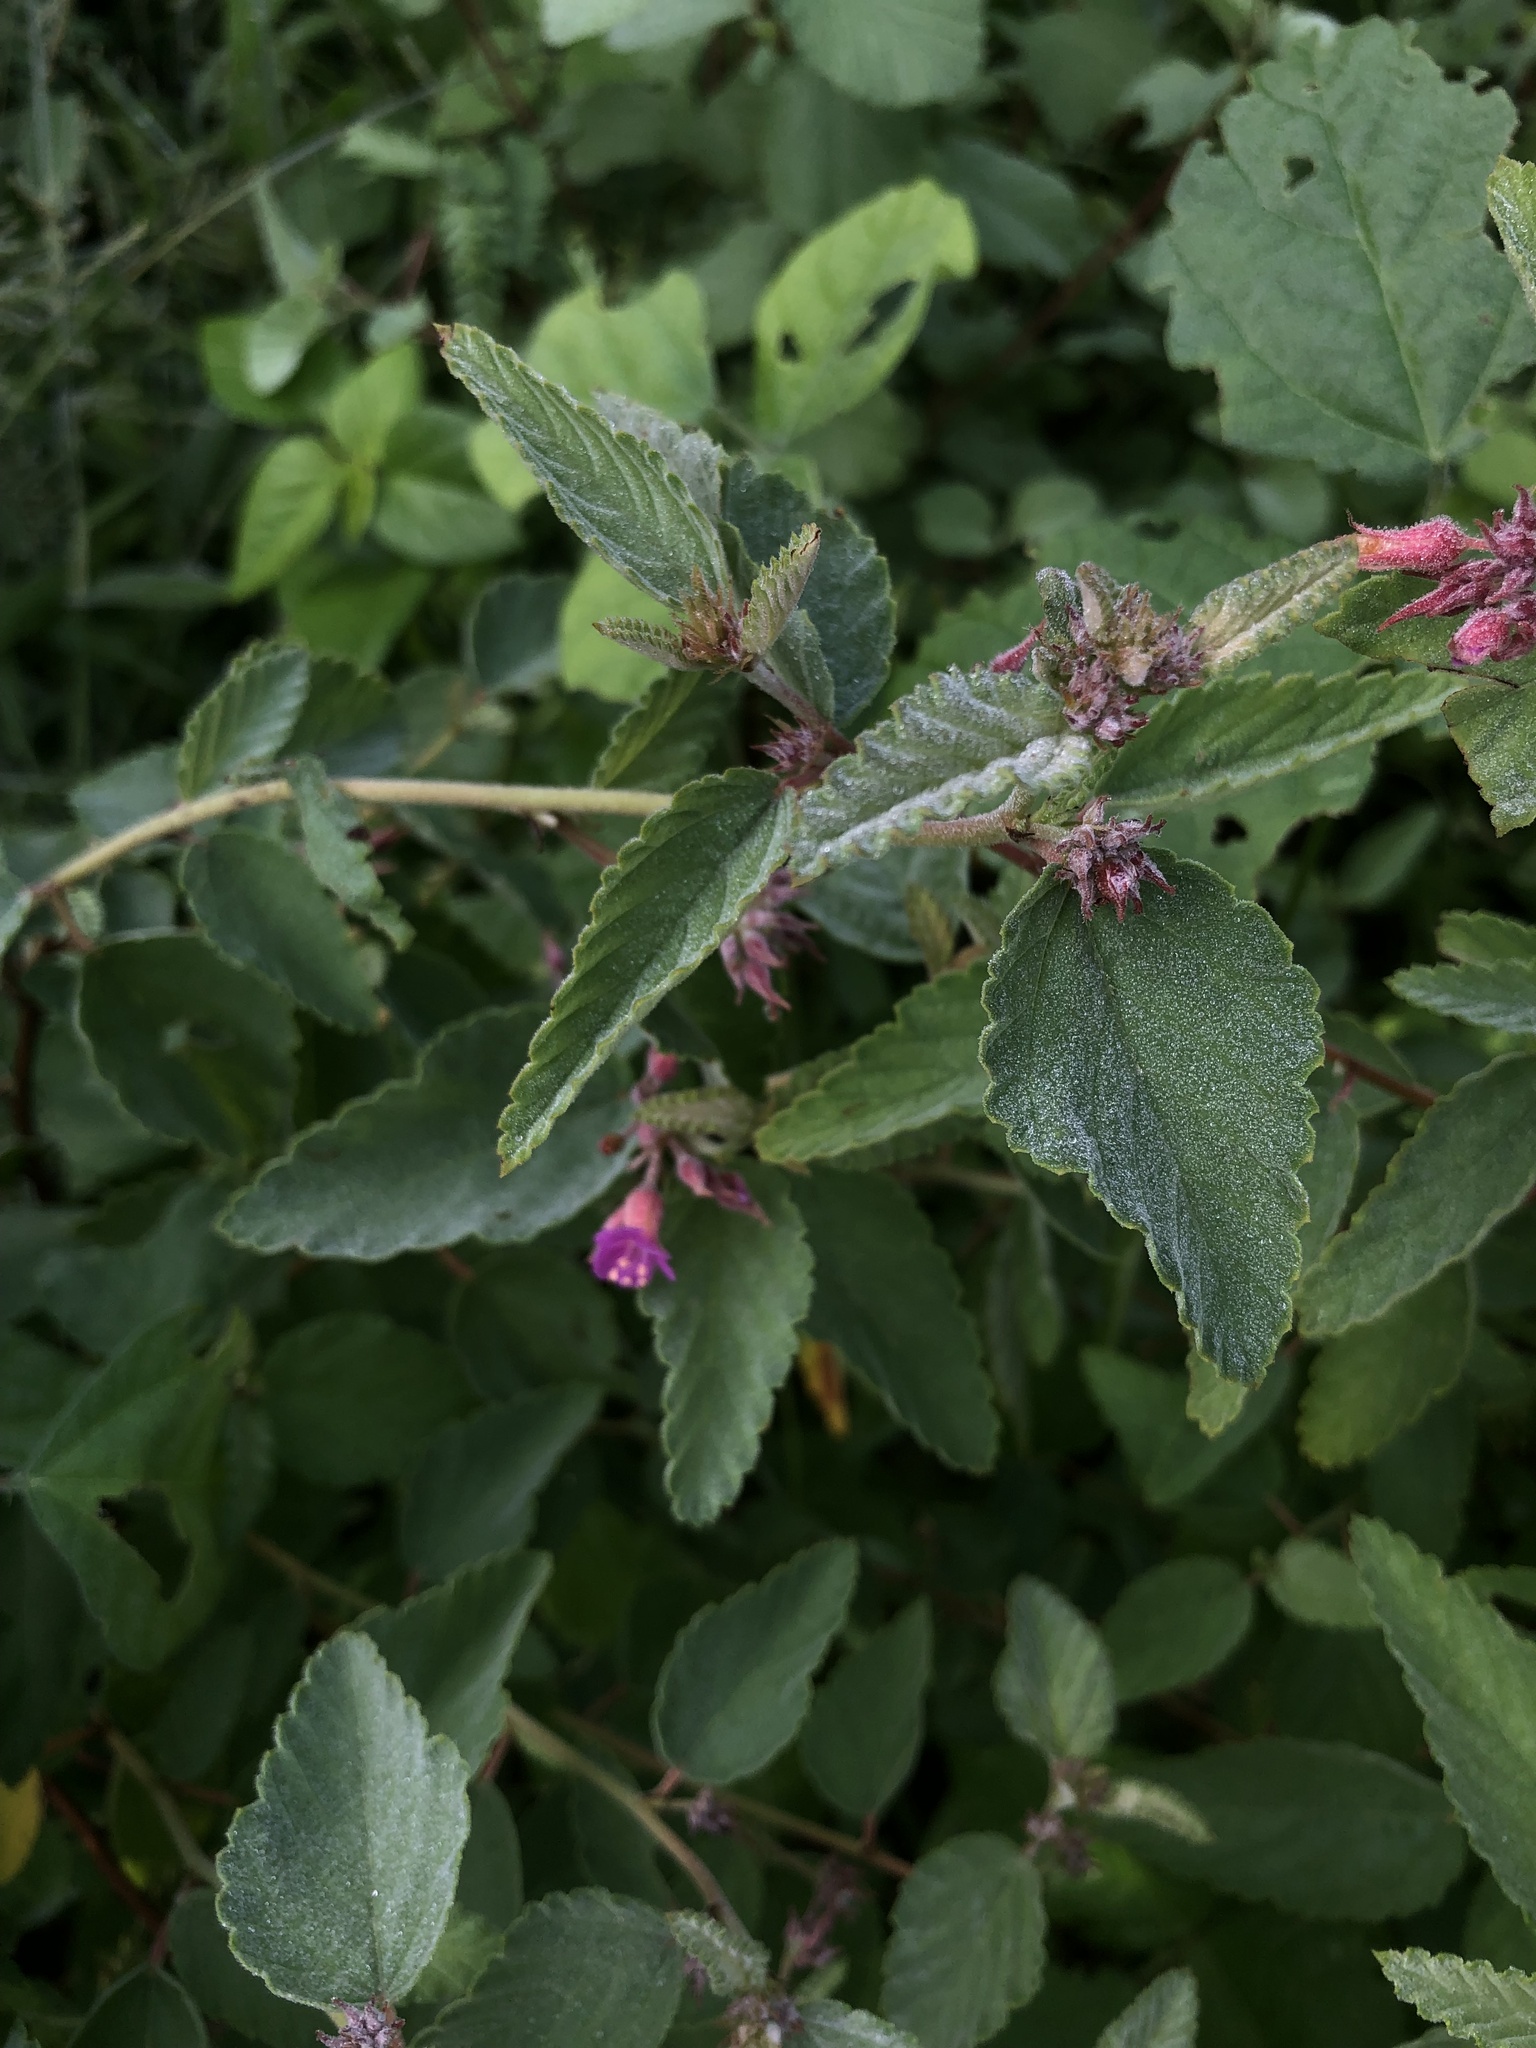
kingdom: Plantae
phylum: Tracheophyta
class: Magnoliopsida
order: Malvales
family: Malvaceae
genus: Melochia
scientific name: Melochia tomentosa
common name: Black torch
